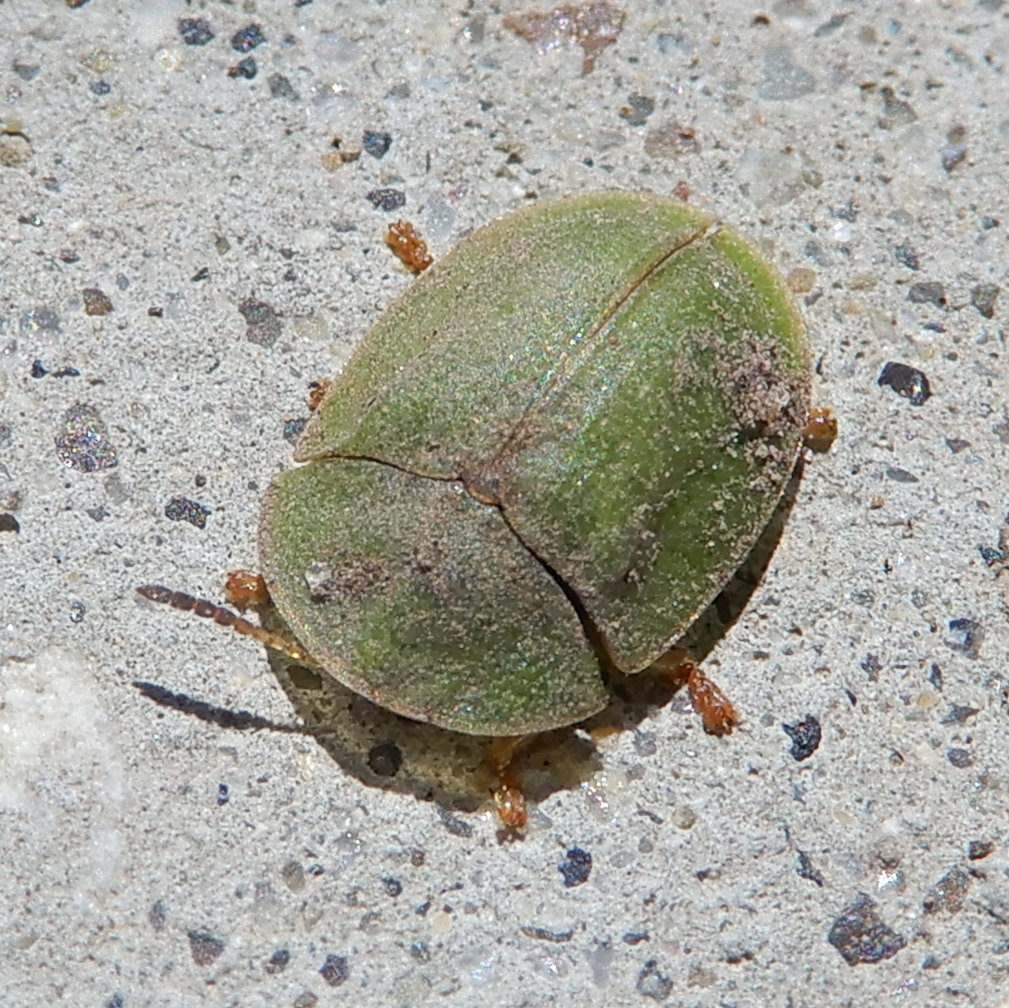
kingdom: Animalia
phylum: Arthropoda
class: Insecta
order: Coleoptera
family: Chrysomelidae
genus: Cassida
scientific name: Cassida rubiginosa
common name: Thistle tortoise beetle
